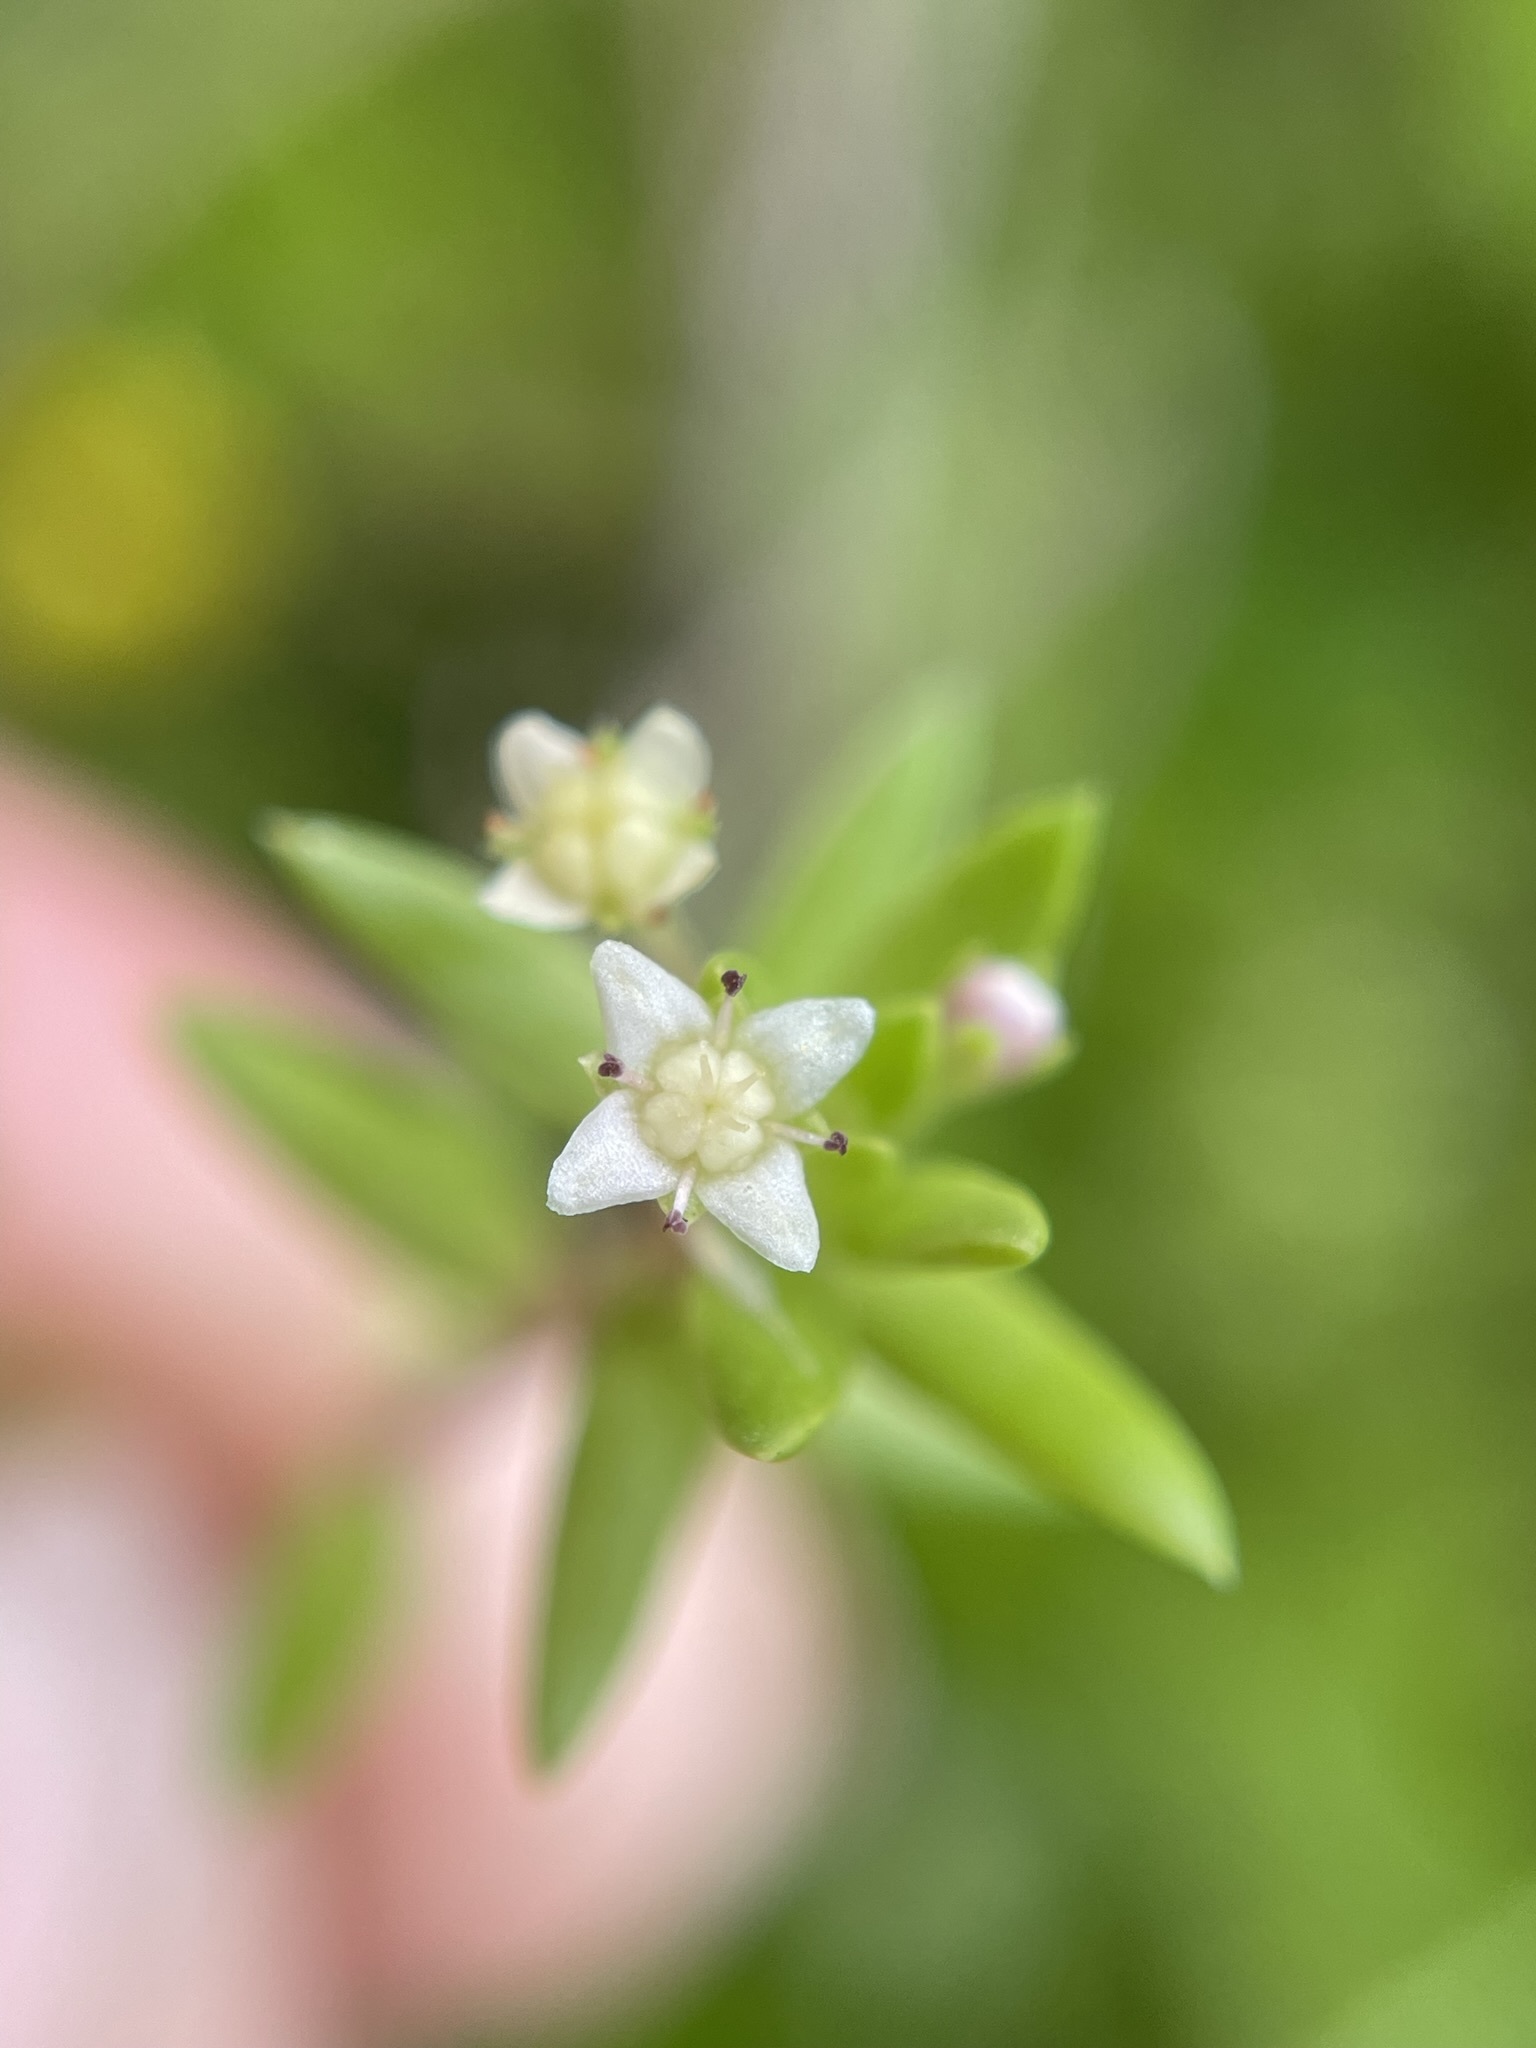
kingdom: Plantae
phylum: Tracheophyta
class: Magnoliopsida
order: Saxifragales
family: Crassulaceae
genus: Crassula
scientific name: Crassula helmsii
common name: New zealand pigmyweed
